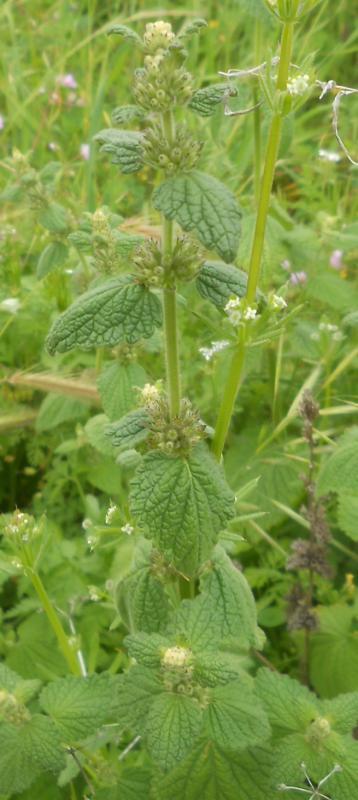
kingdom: Plantae
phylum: Tracheophyta
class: Magnoliopsida
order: Lamiales
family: Lamiaceae
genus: Marrubium
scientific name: Marrubium vulgare
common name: Horehound
